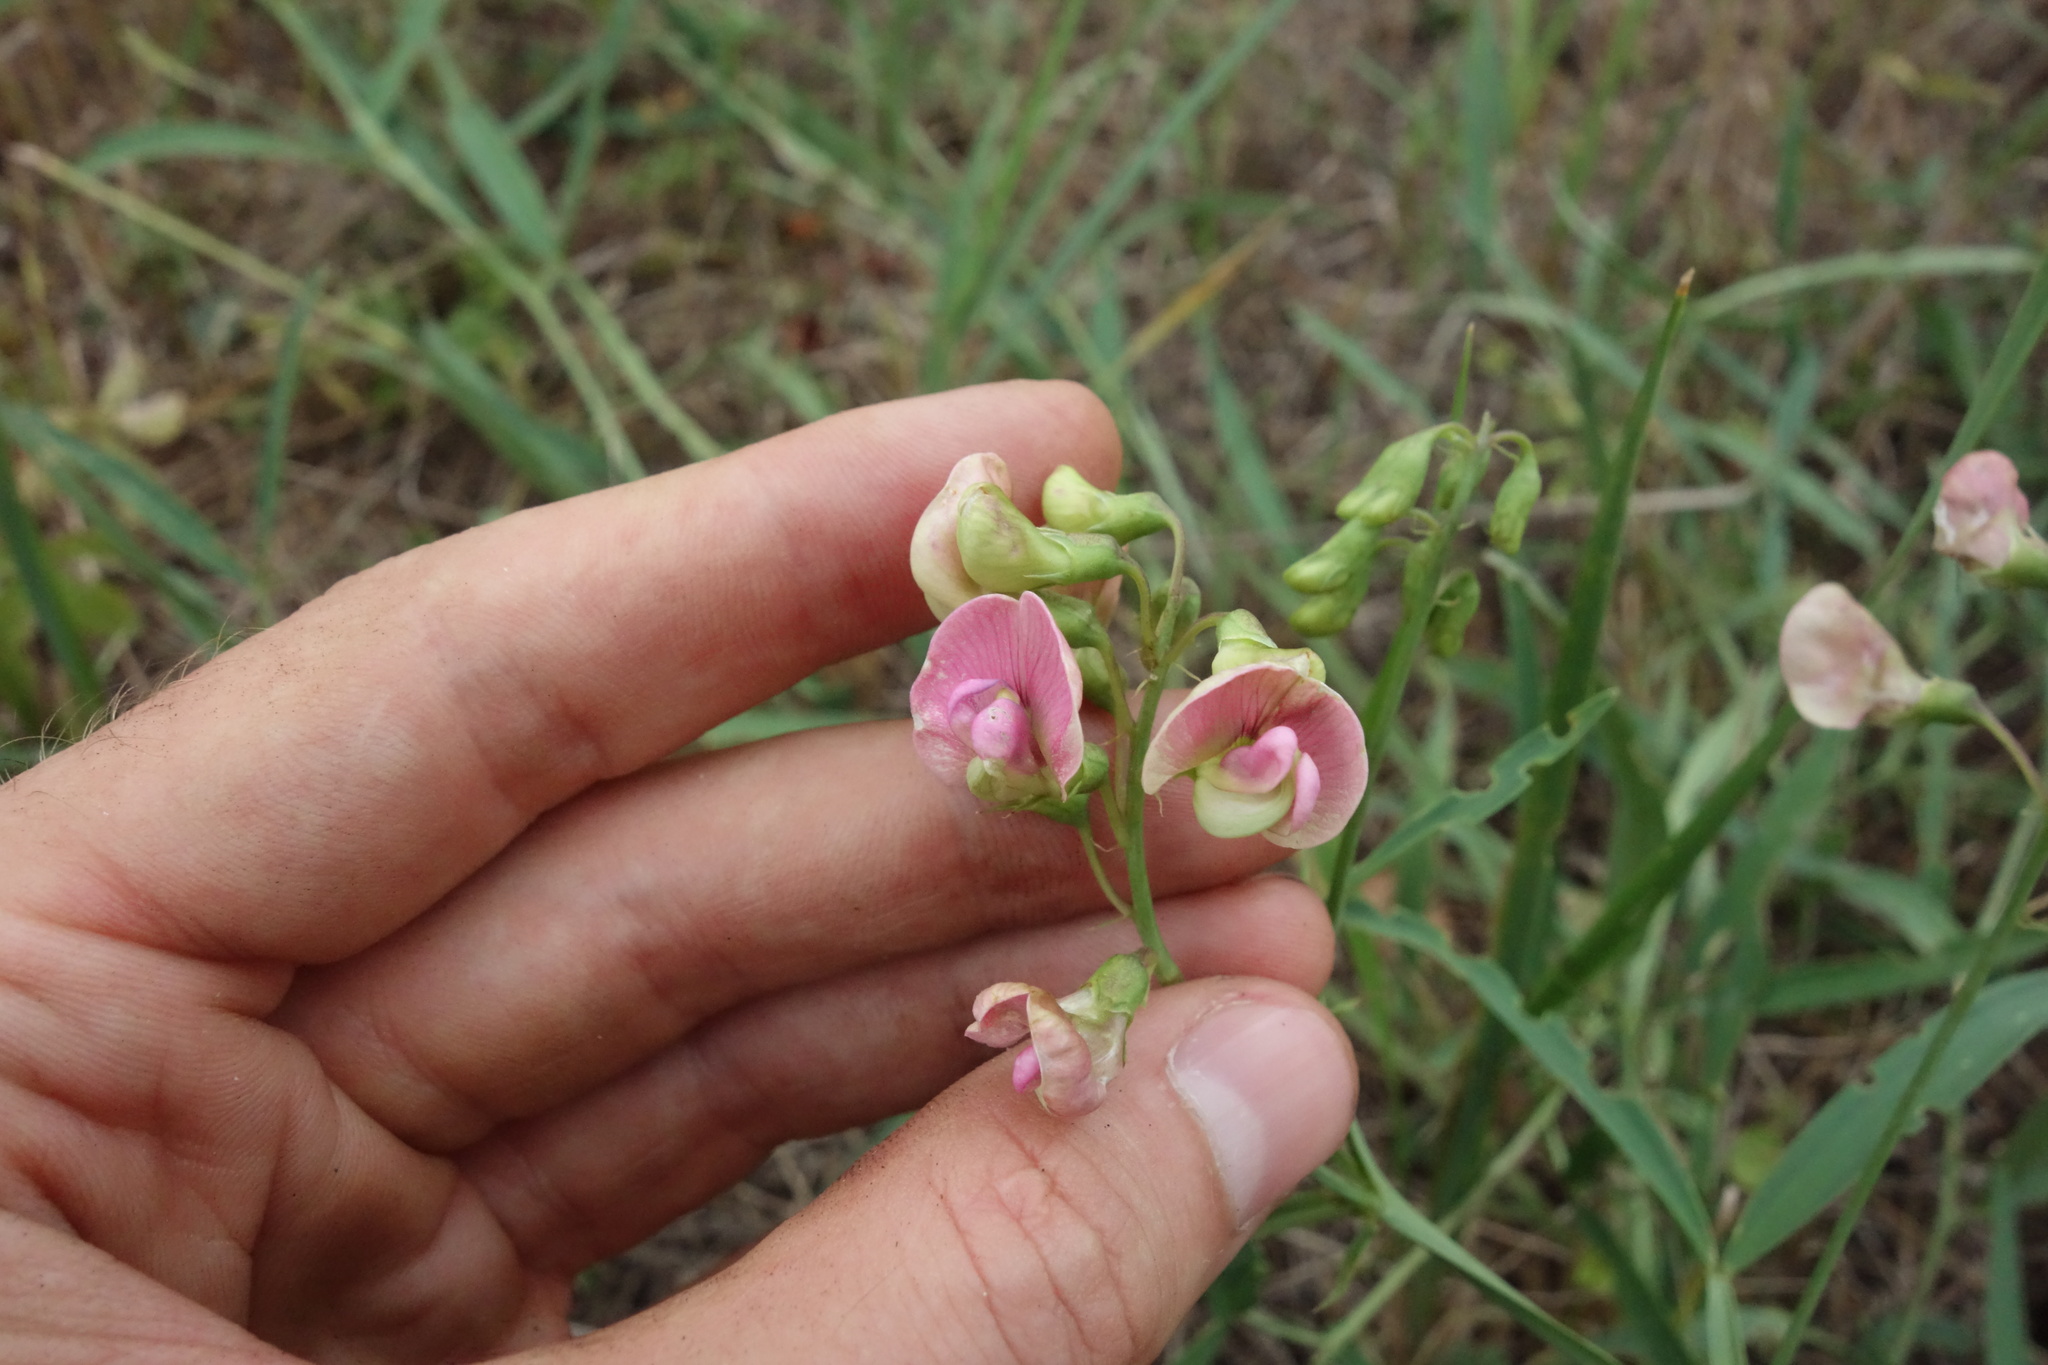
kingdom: Plantae
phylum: Tracheophyta
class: Magnoliopsida
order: Fabales
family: Fabaceae
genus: Lathyrus
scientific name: Lathyrus sylvestris
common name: Flat pea
